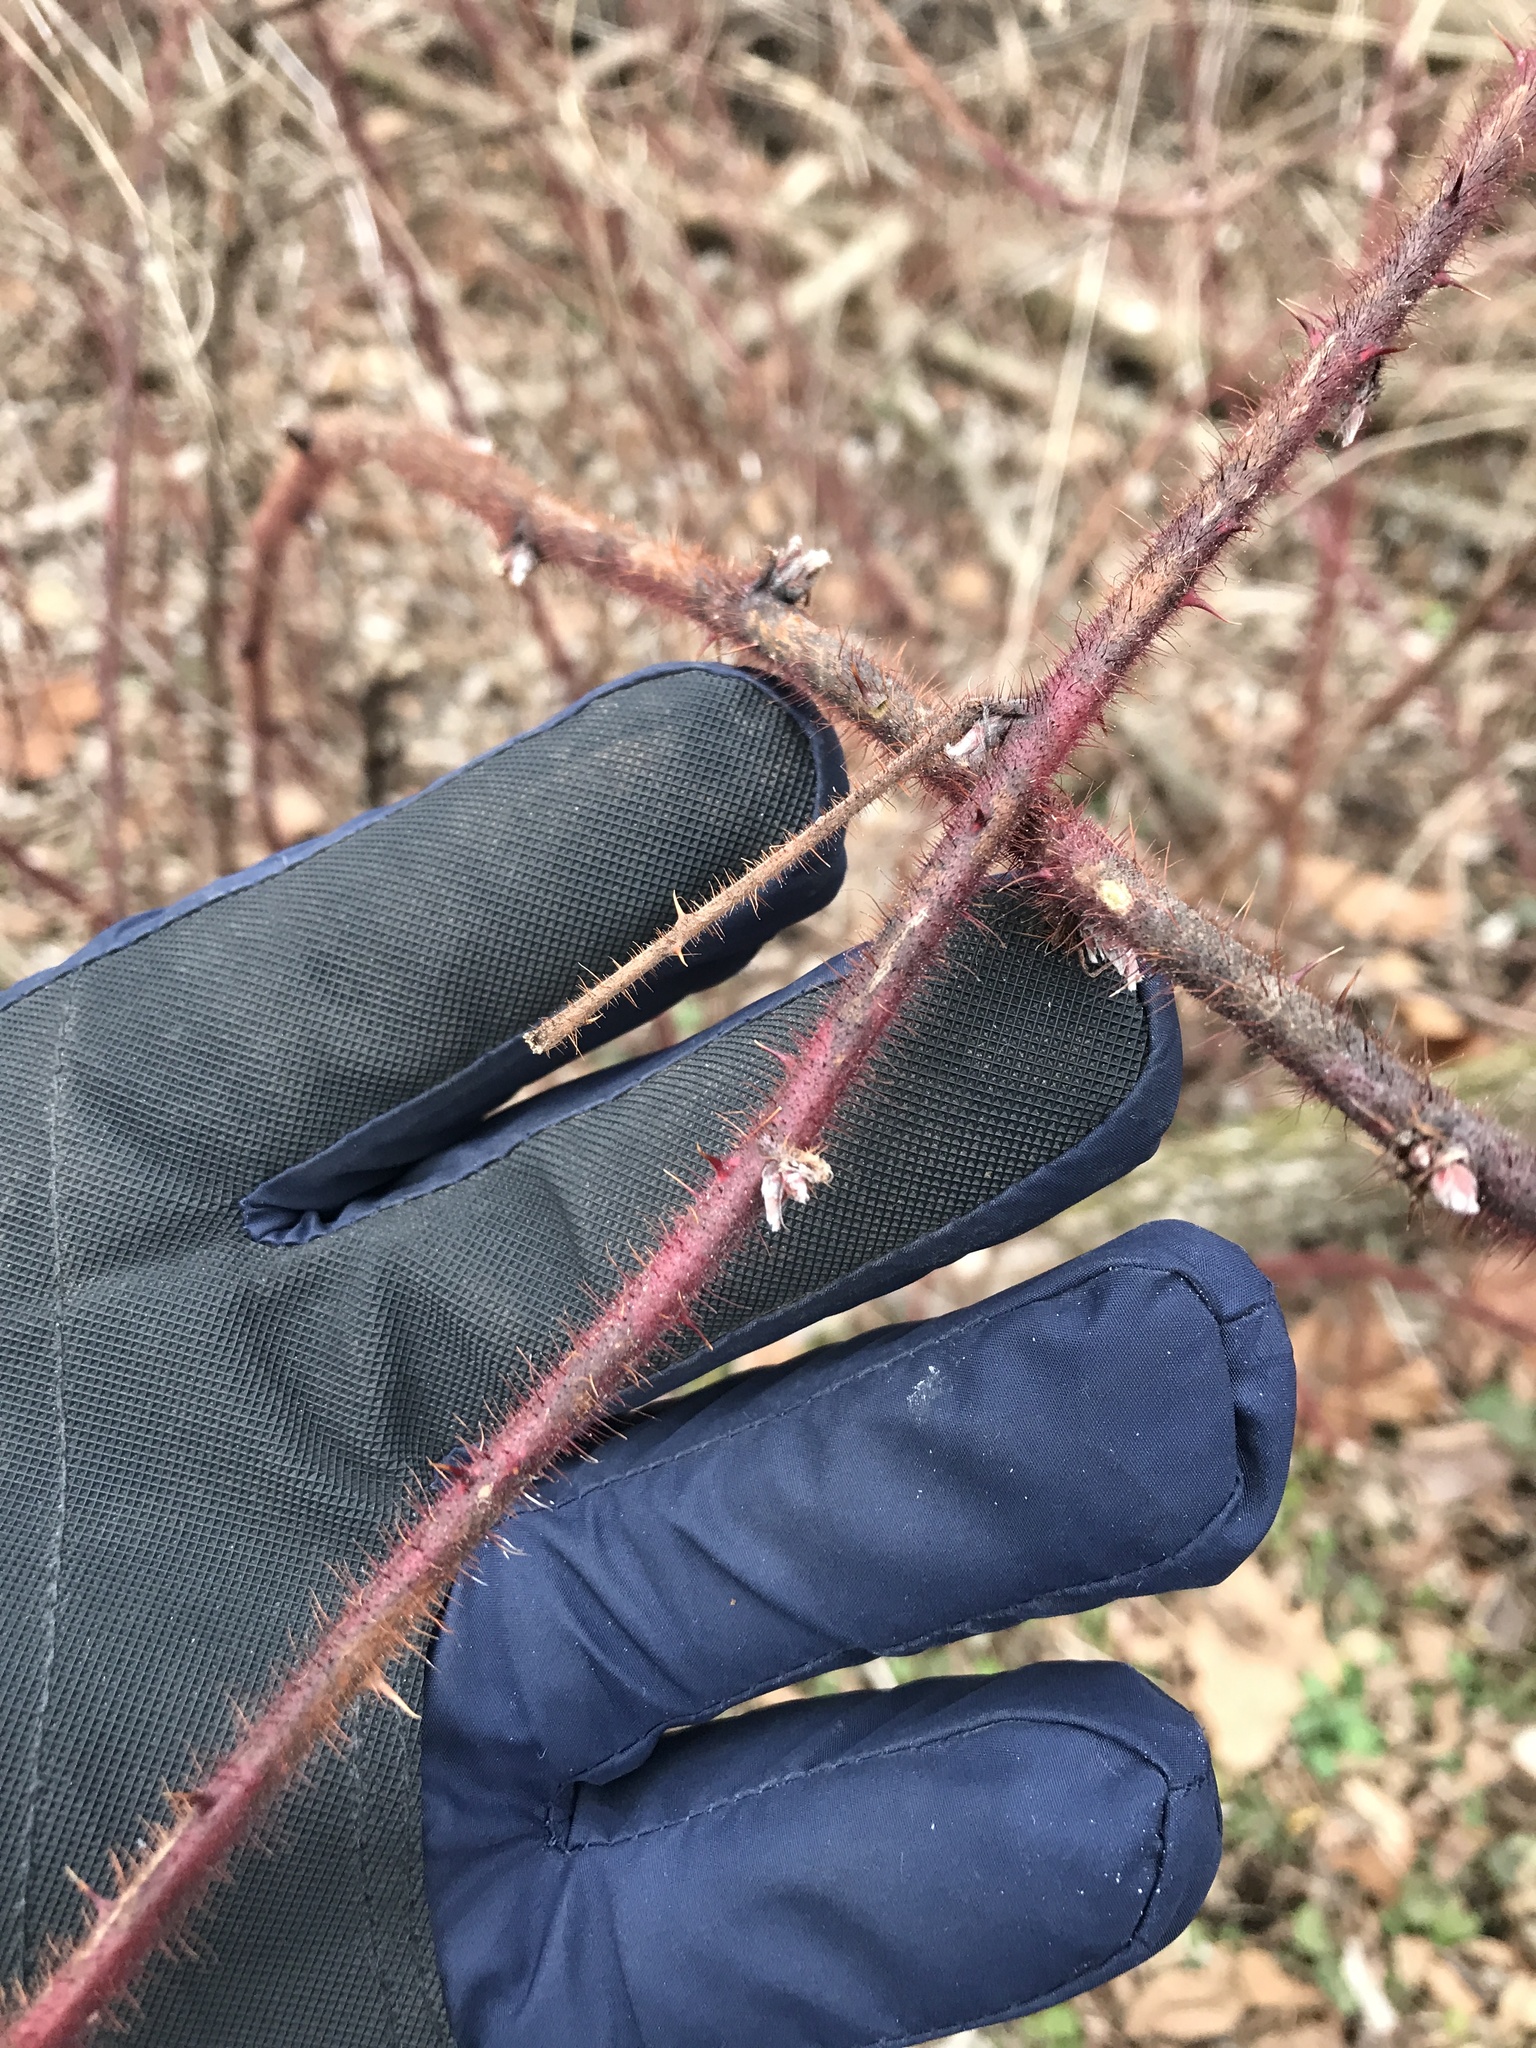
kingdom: Plantae
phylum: Tracheophyta
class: Magnoliopsida
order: Rosales
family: Rosaceae
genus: Rubus
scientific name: Rubus phoenicolasius
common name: Japanese wineberry
